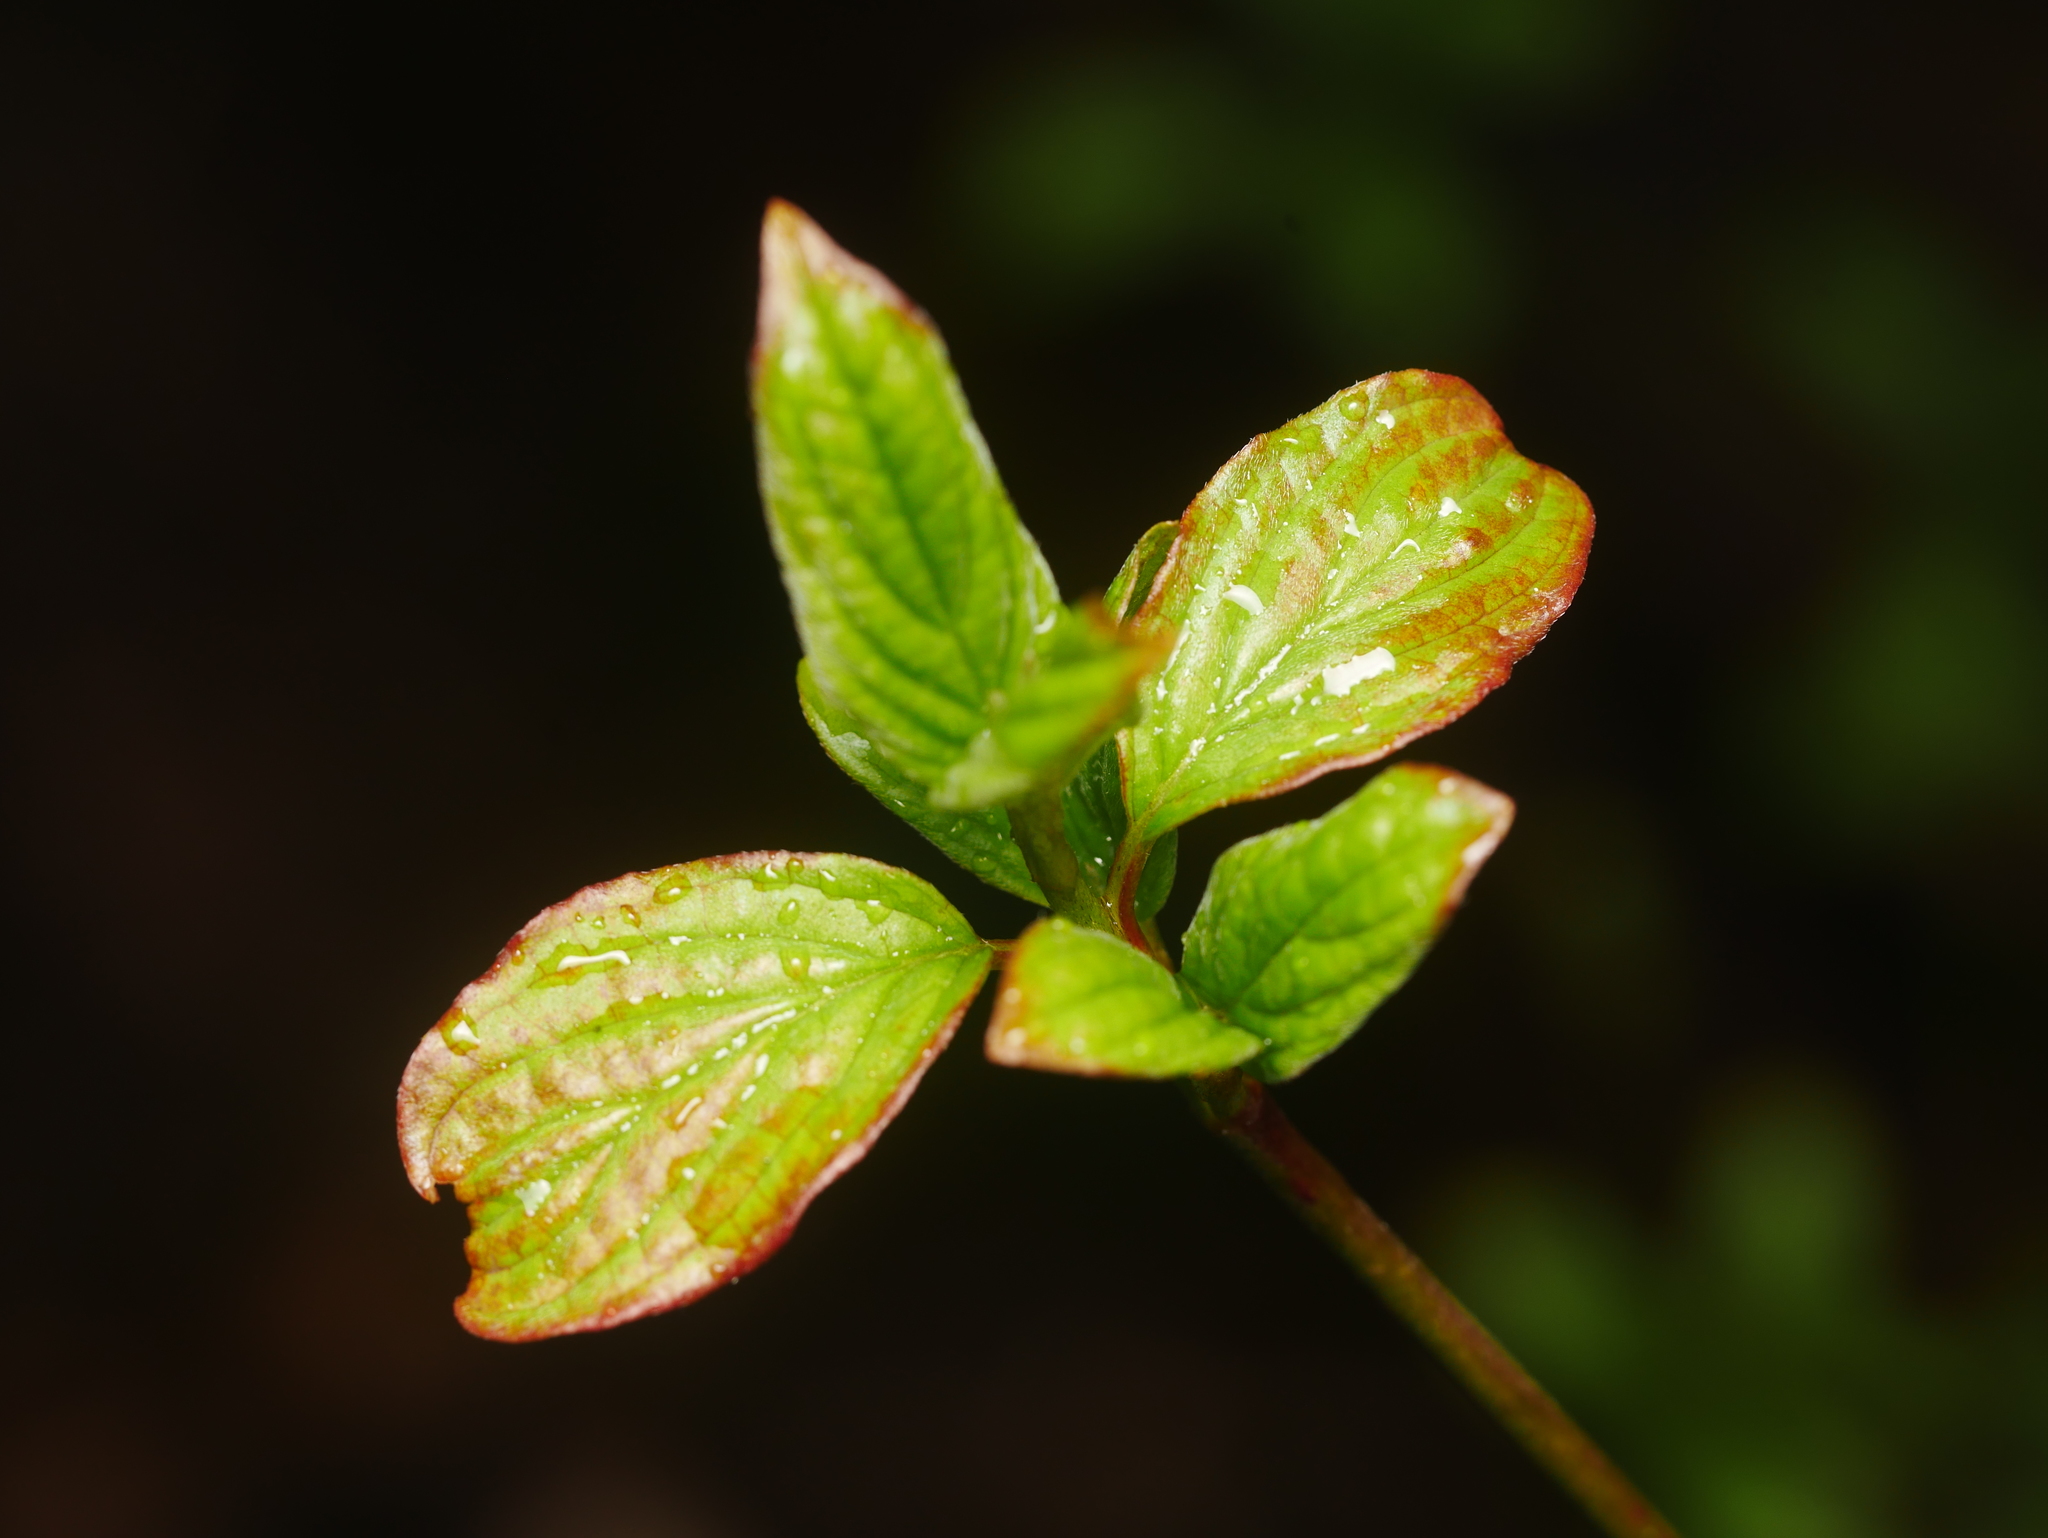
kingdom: Plantae
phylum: Tracheophyta
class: Magnoliopsida
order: Cornales
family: Cornaceae
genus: Cornus
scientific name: Cornus sanguinea
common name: Dogwood
